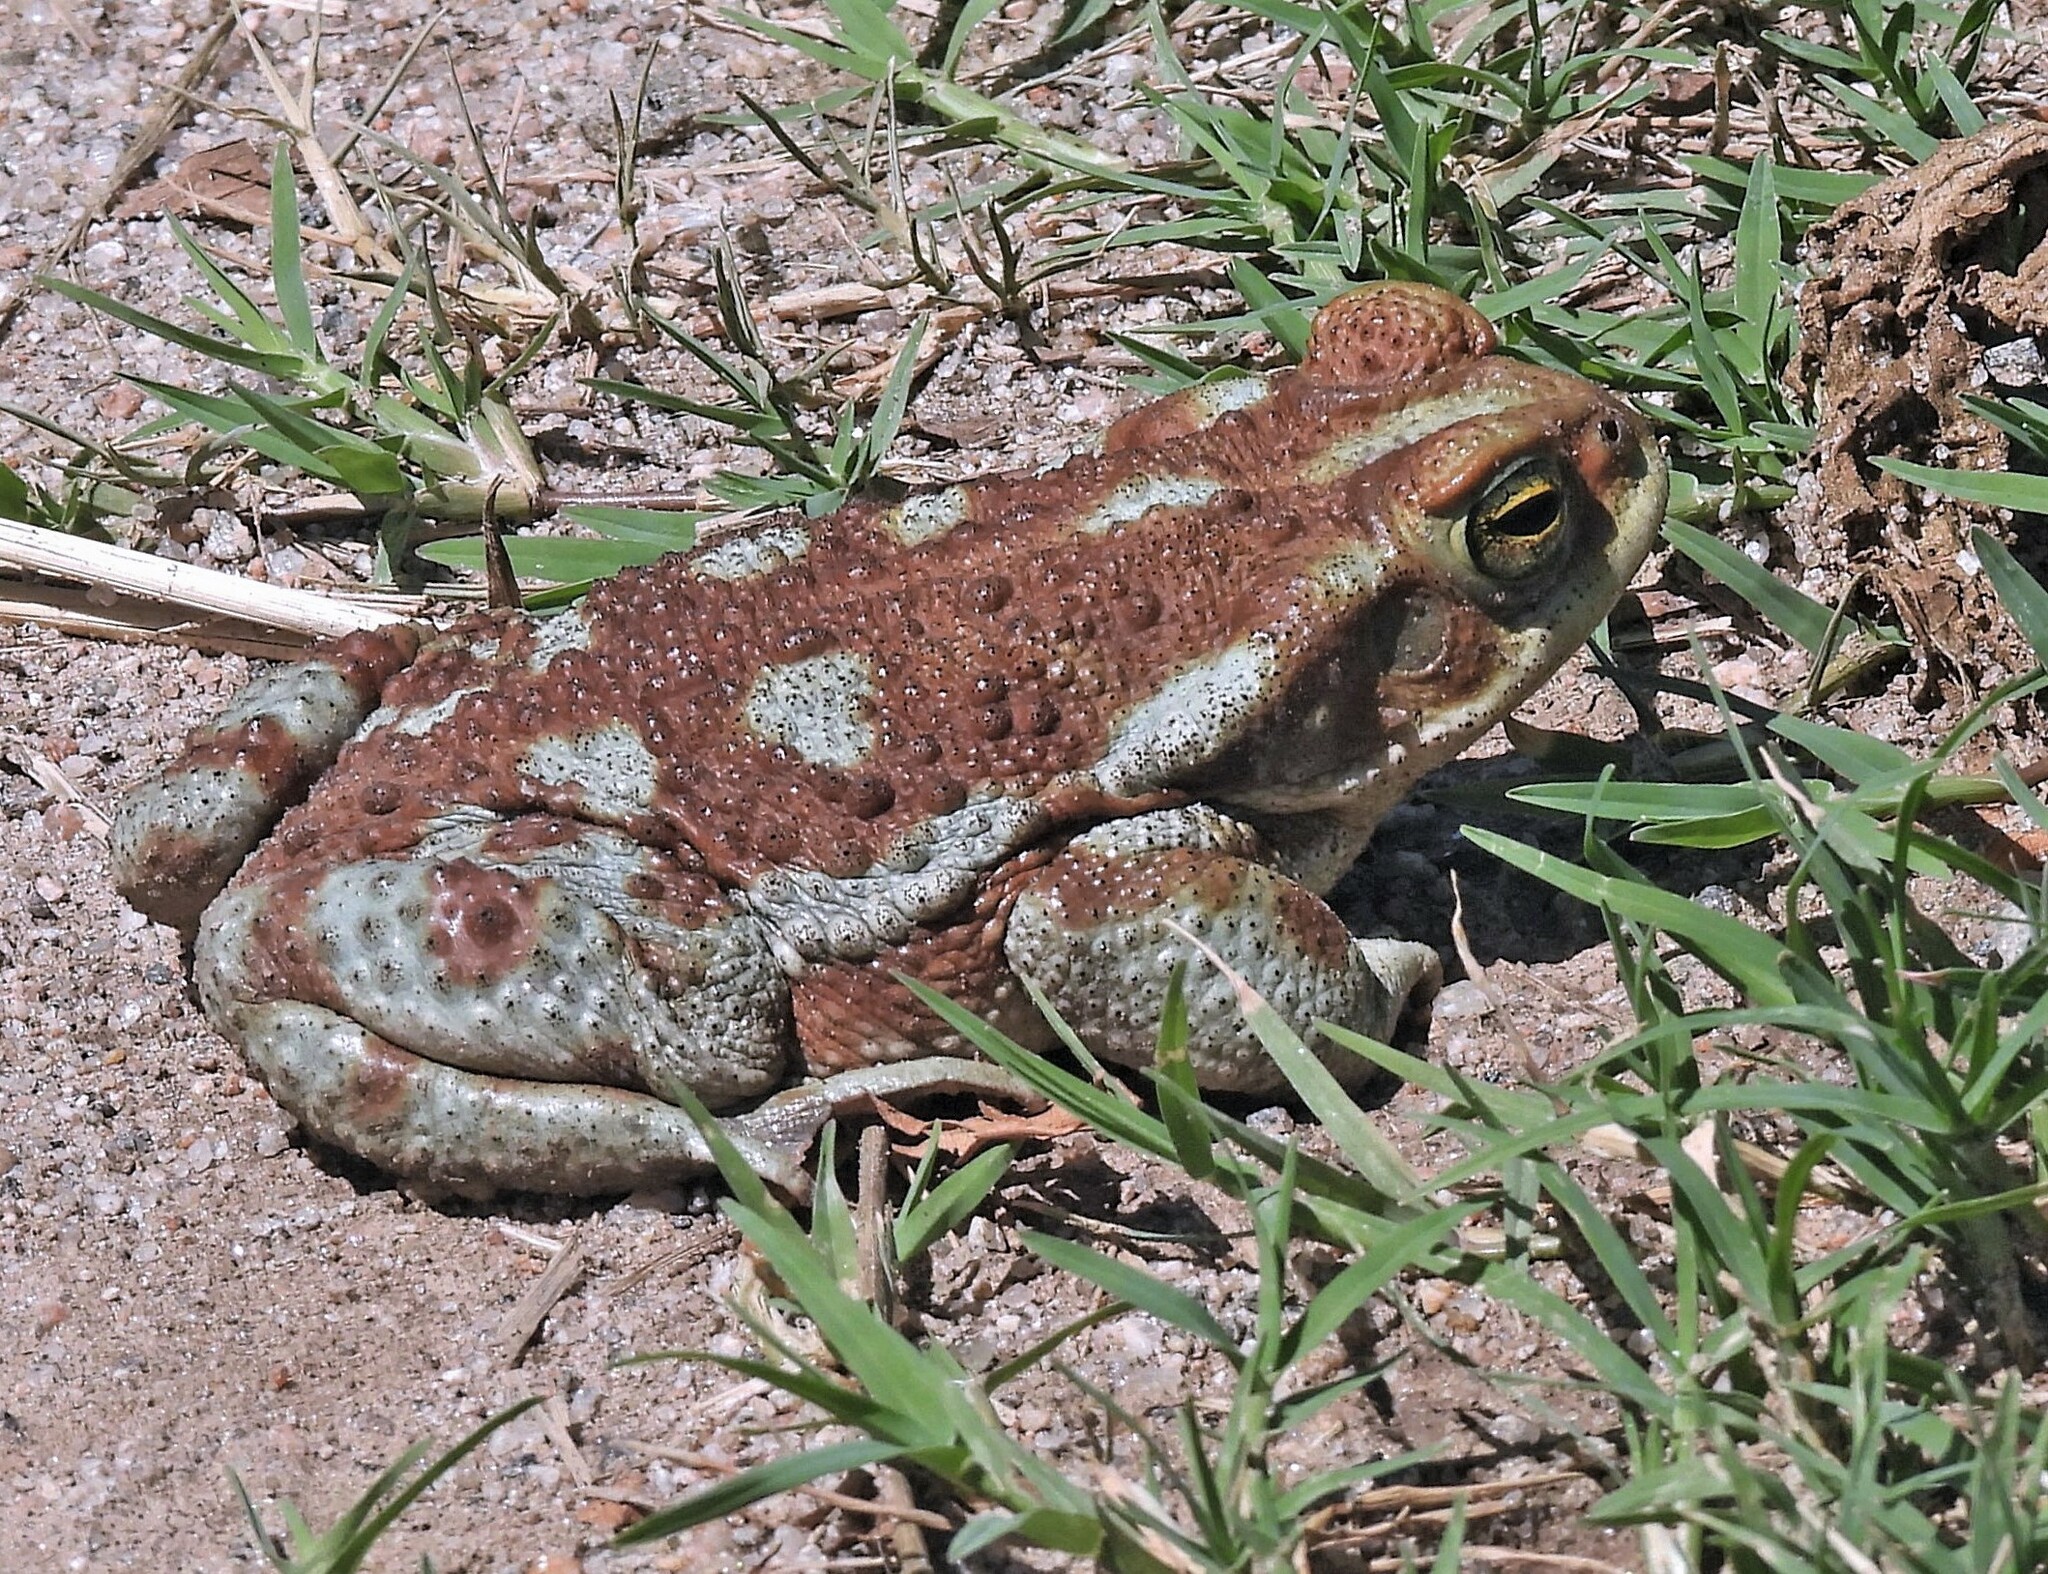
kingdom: Animalia
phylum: Chordata
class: Amphibia
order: Anura
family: Bufonidae
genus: Rhinella
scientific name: Rhinella arenarum
